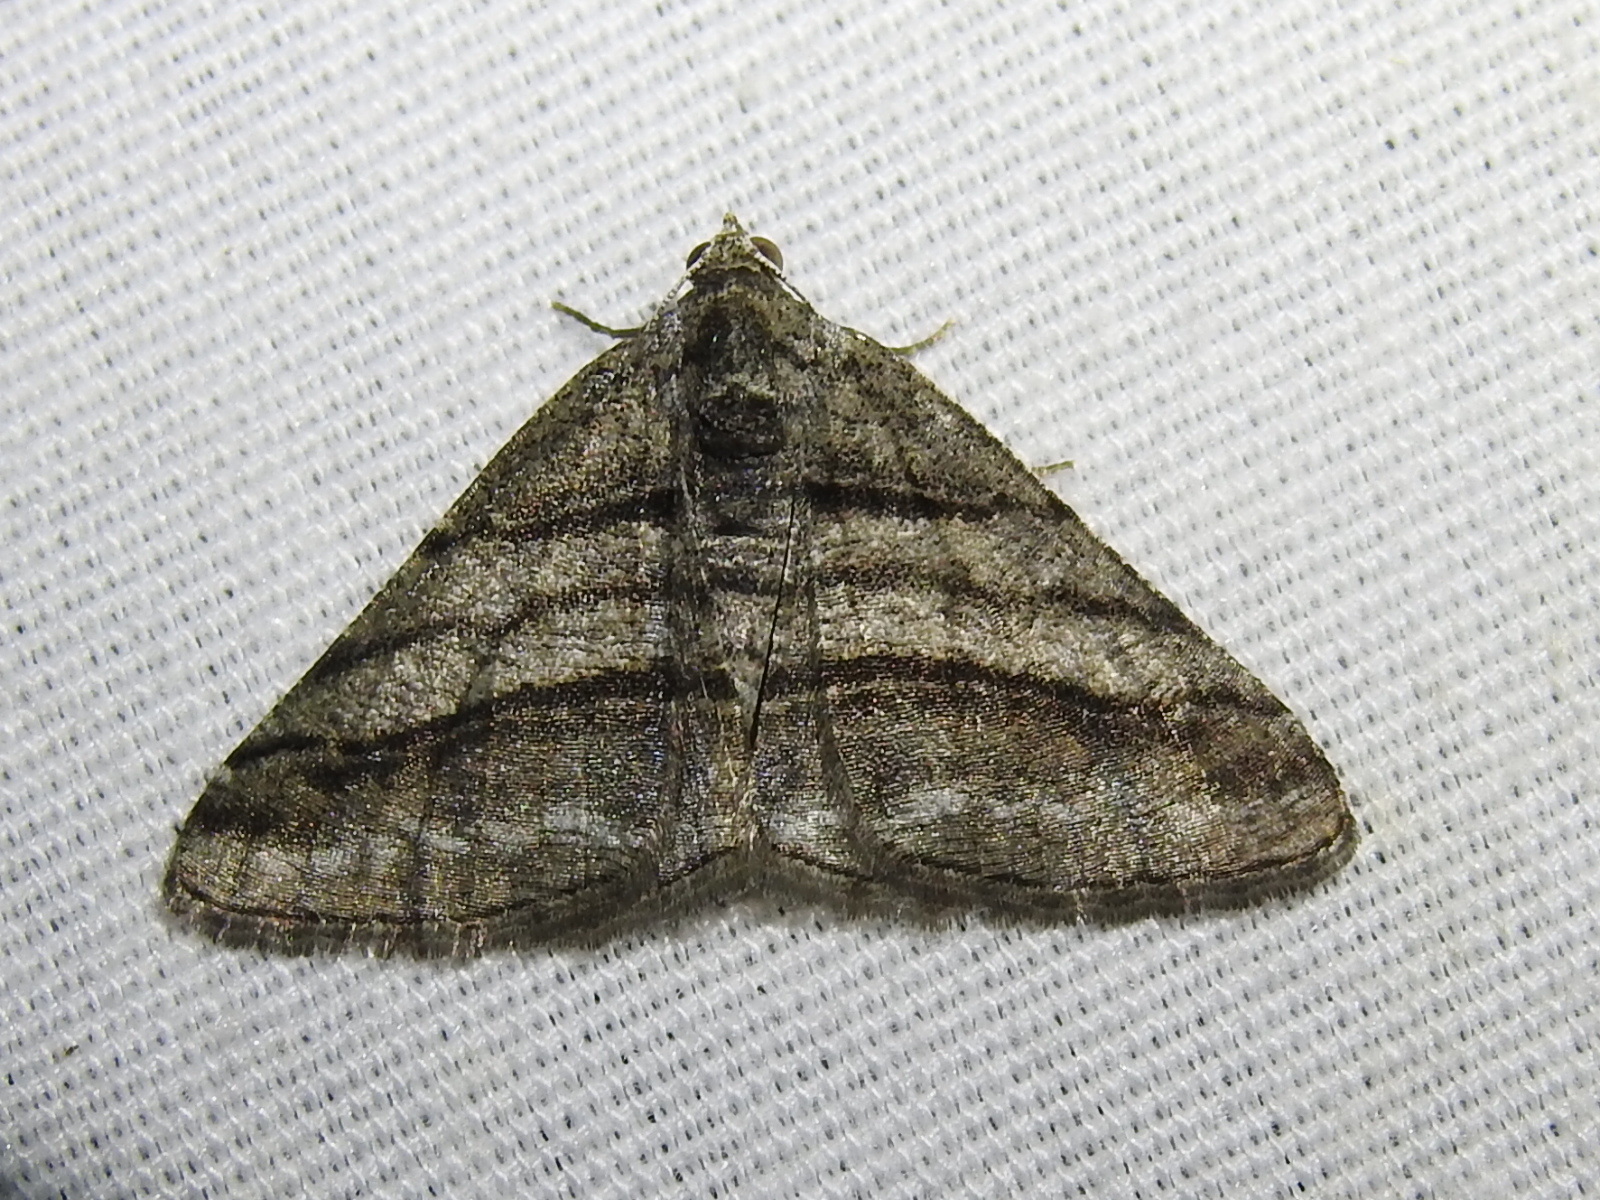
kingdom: Animalia
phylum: Arthropoda
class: Insecta
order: Lepidoptera
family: Geometridae
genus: Digrammia
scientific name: Digrammia atrofasciata
